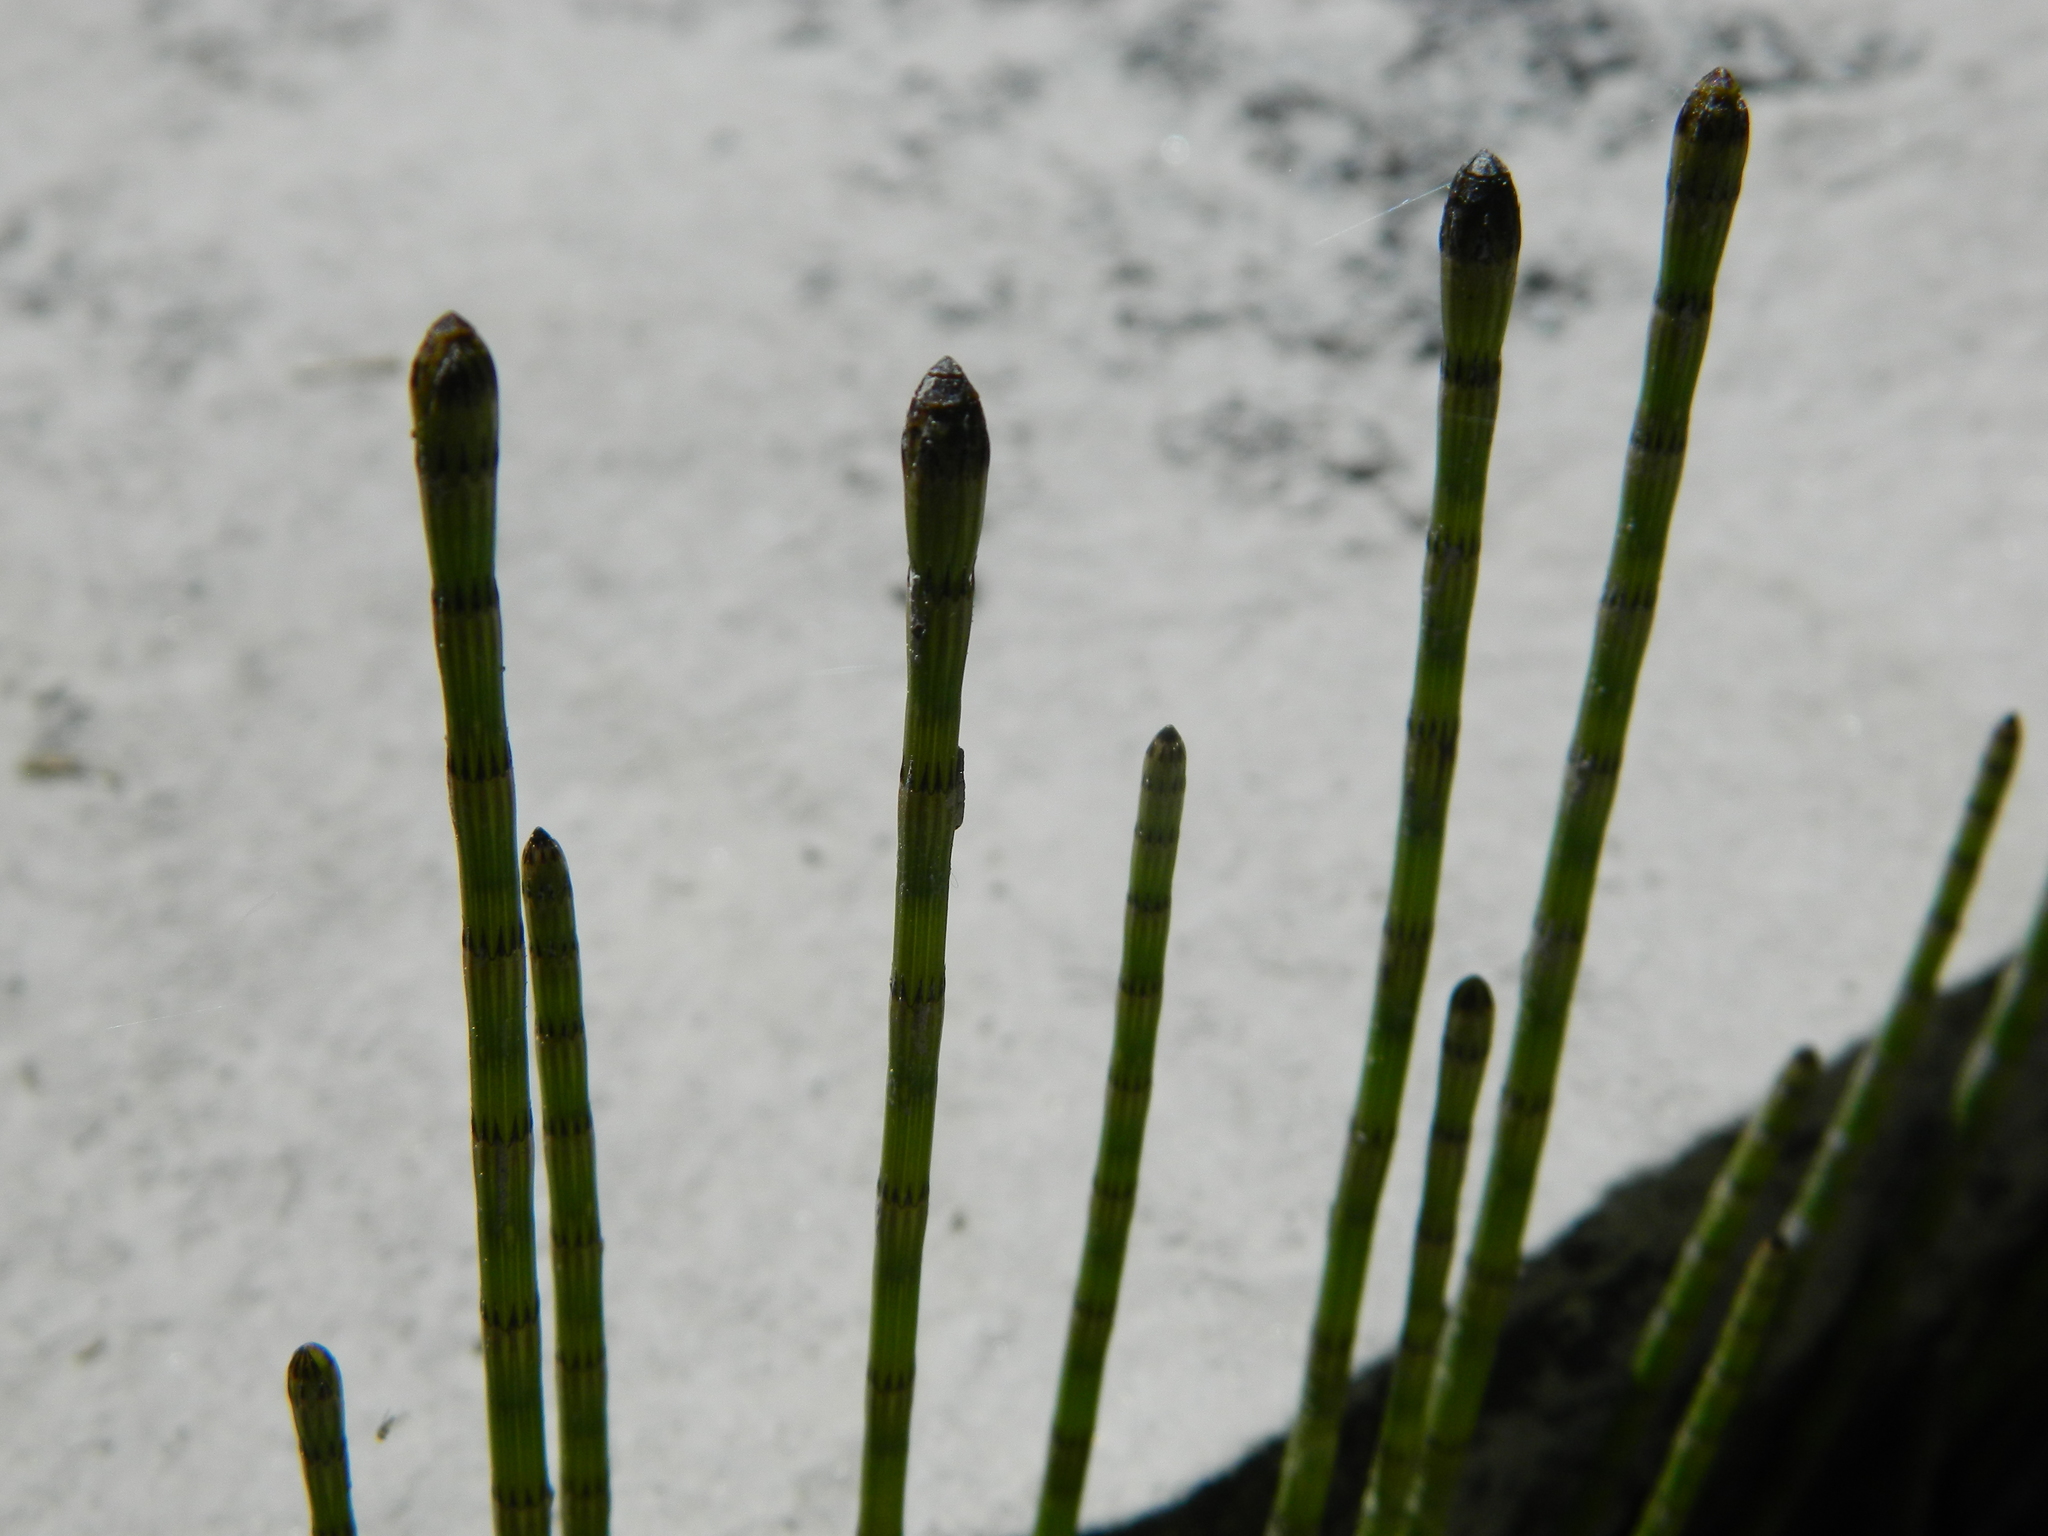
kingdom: Plantae
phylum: Tracheophyta
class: Polypodiopsida
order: Equisetales
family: Equisetaceae
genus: Equisetum
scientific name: Equisetum fluviatile
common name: Water horsetail
